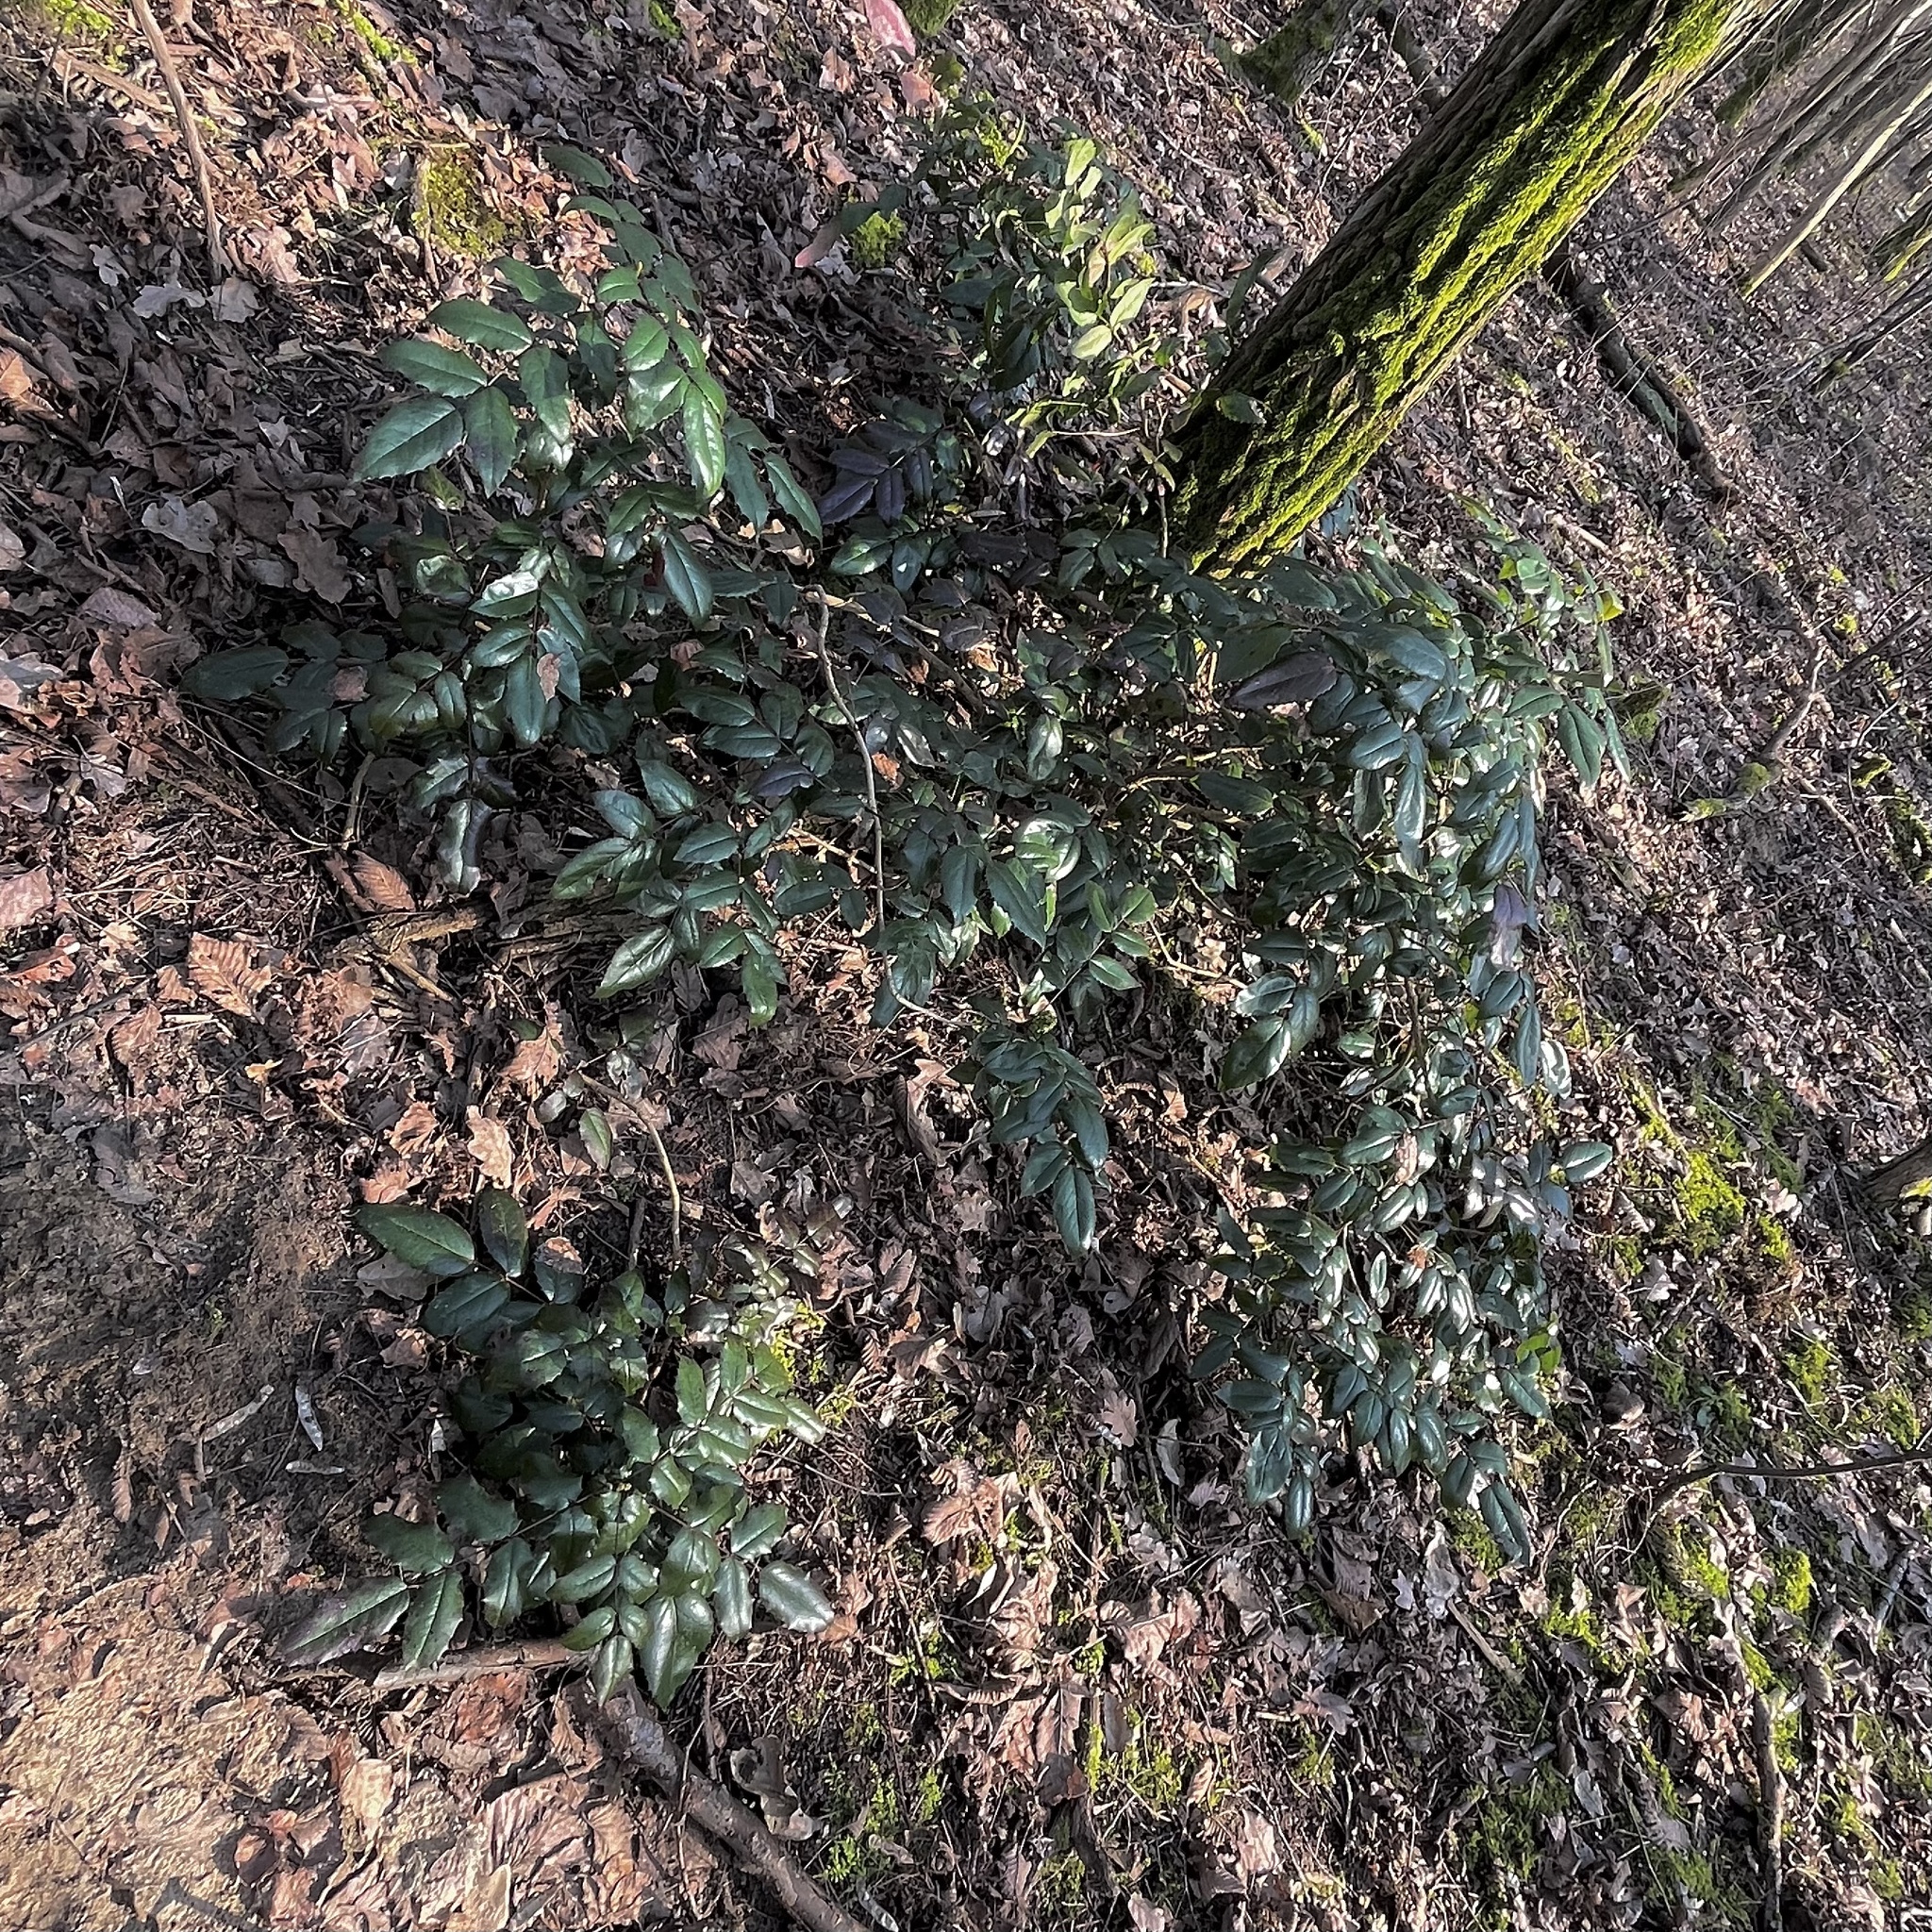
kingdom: Plantae
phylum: Tracheophyta
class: Magnoliopsida
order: Ranunculales
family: Berberidaceae
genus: Mahonia
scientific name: Mahonia aquifolium
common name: Oregon-grape
